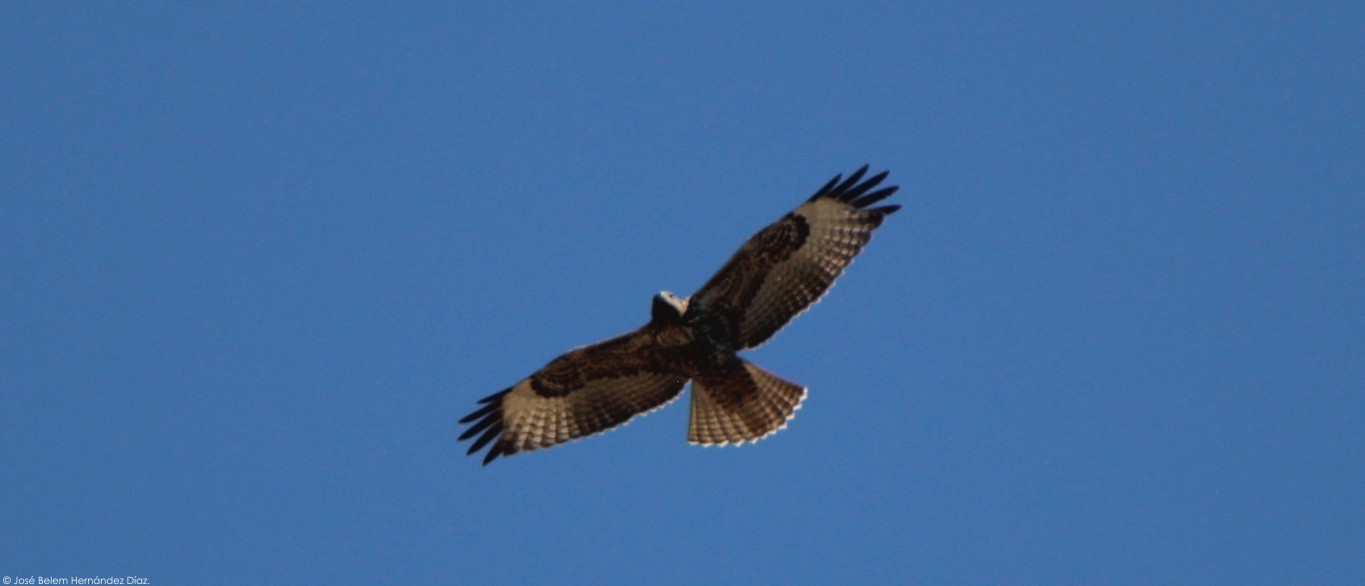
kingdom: Animalia
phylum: Chordata
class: Aves
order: Accipitriformes
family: Accipitridae
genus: Buteo
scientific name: Buteo jamaicensis
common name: Red-tailed hawk
